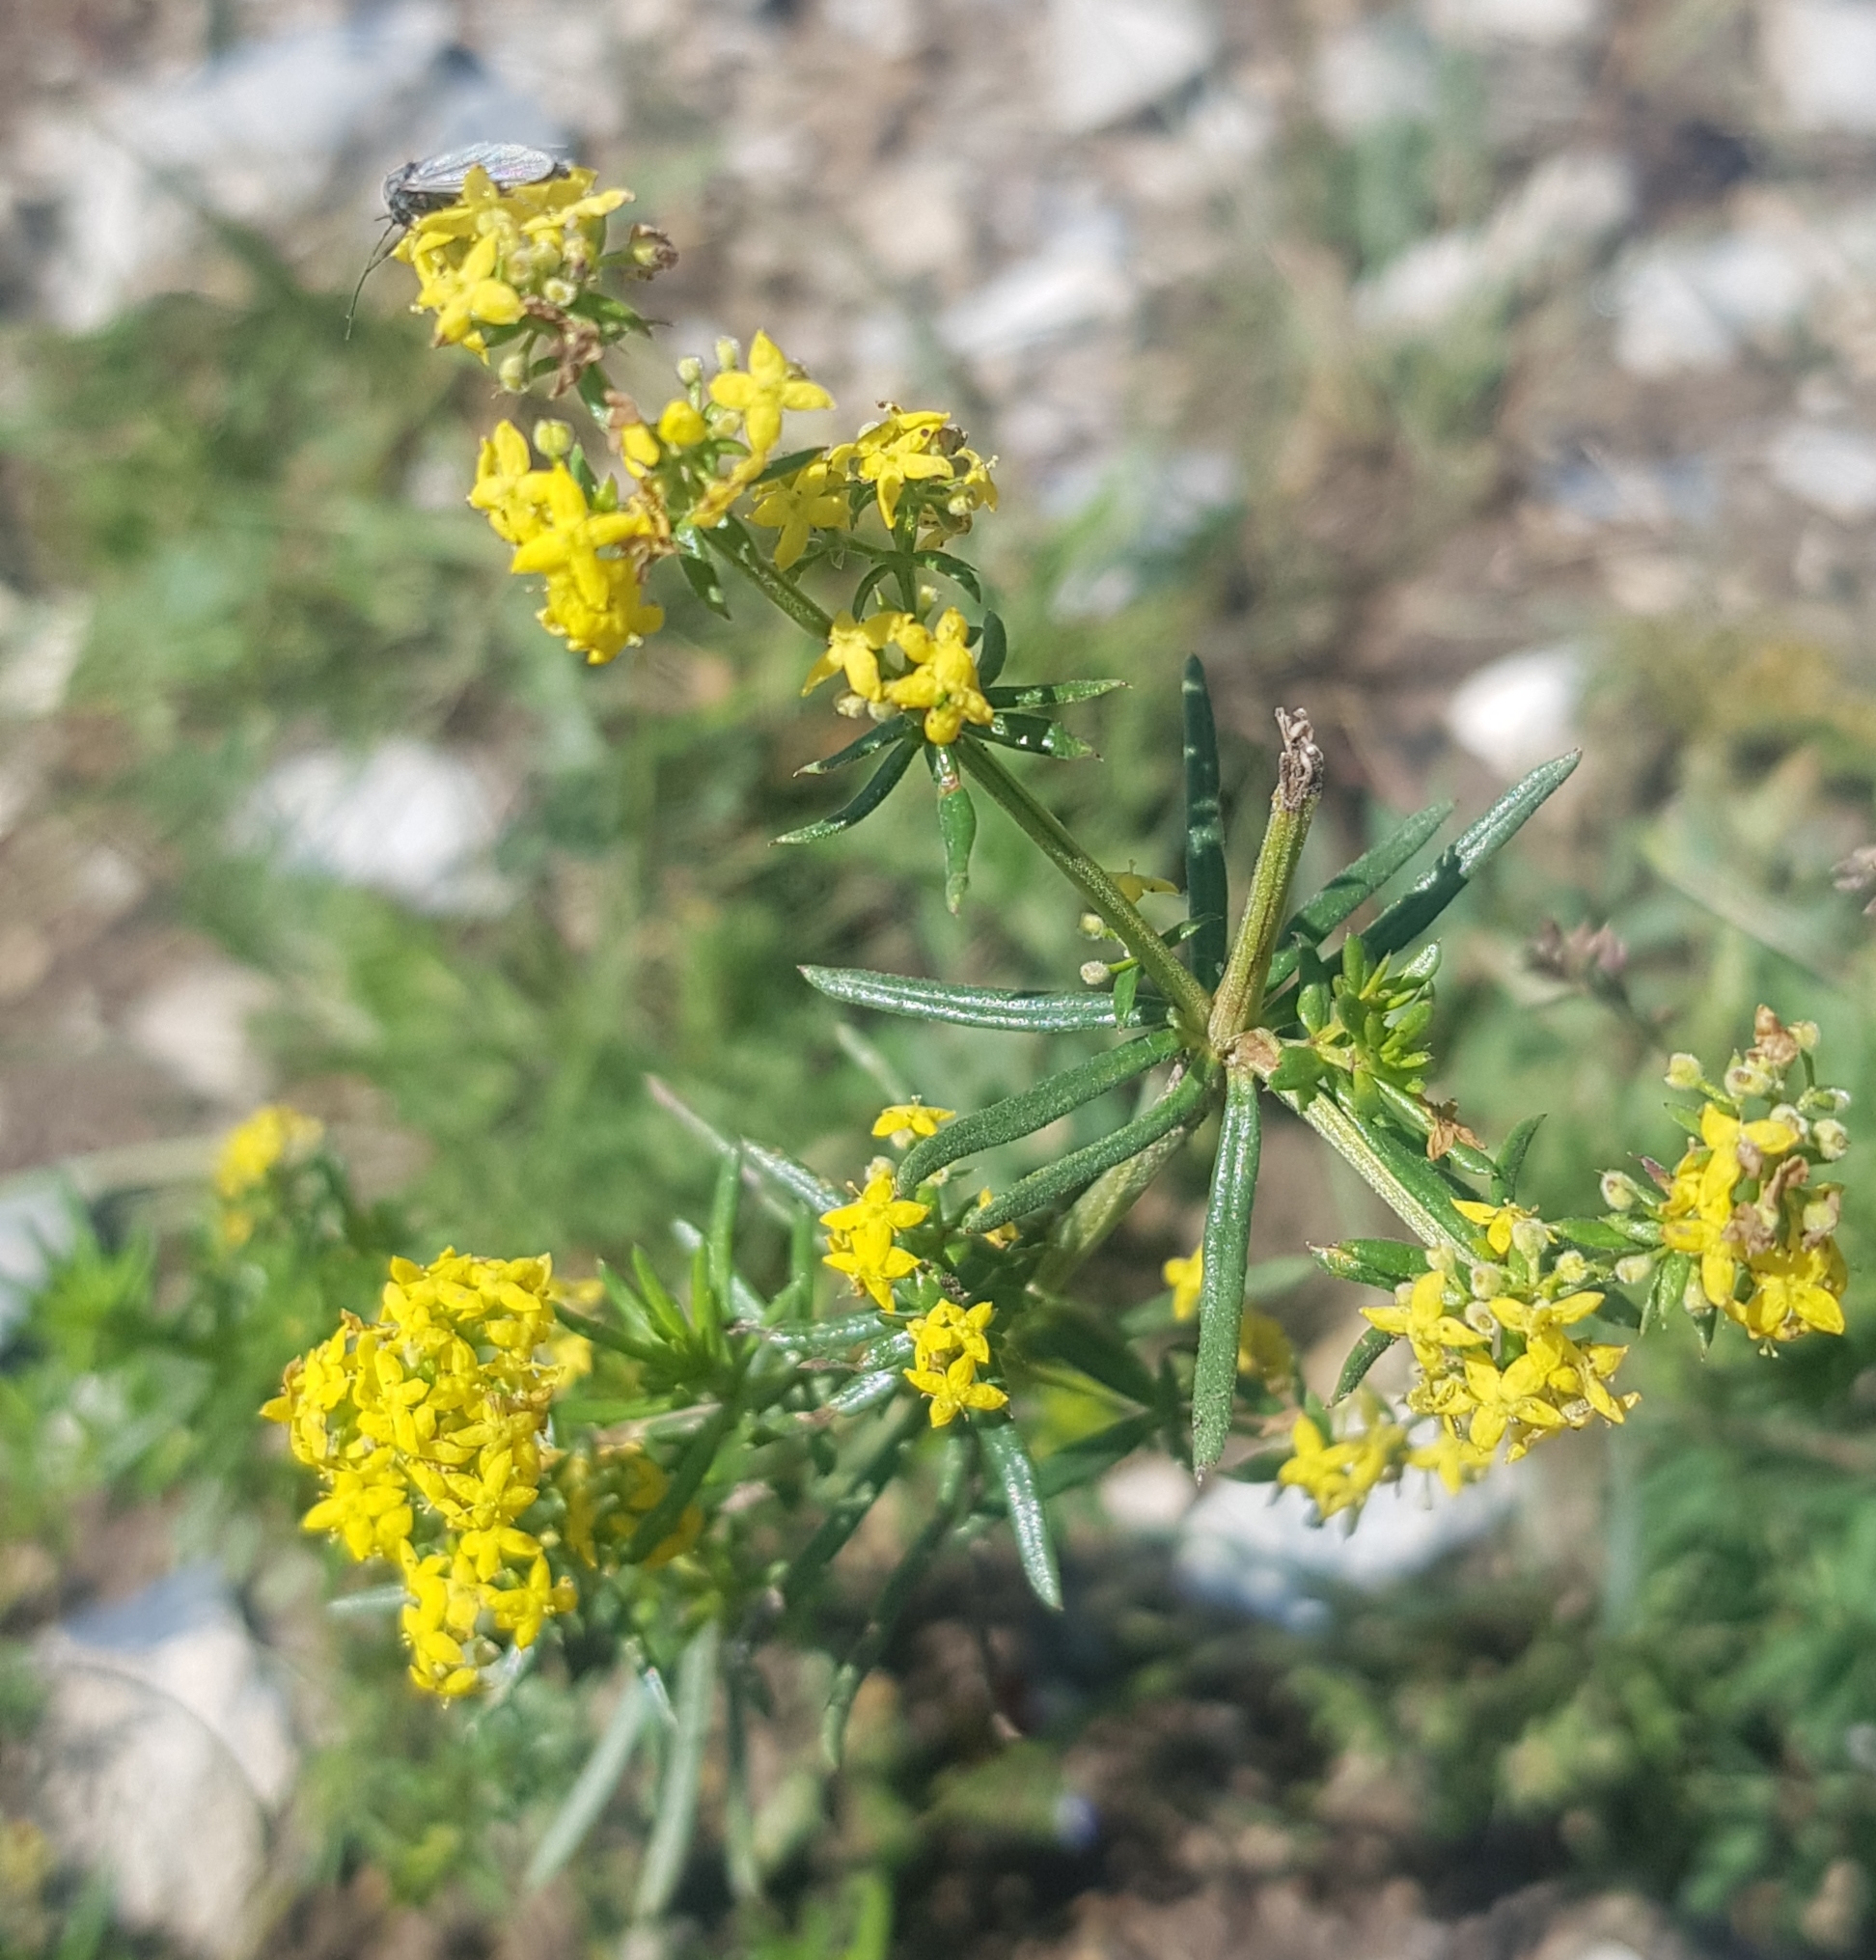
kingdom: Plantae
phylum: Tracheophyta
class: Magnoliopsida
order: Gentianales
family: Rubiaceae
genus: Galium
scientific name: Galium verum
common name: Lady's bedstraw
